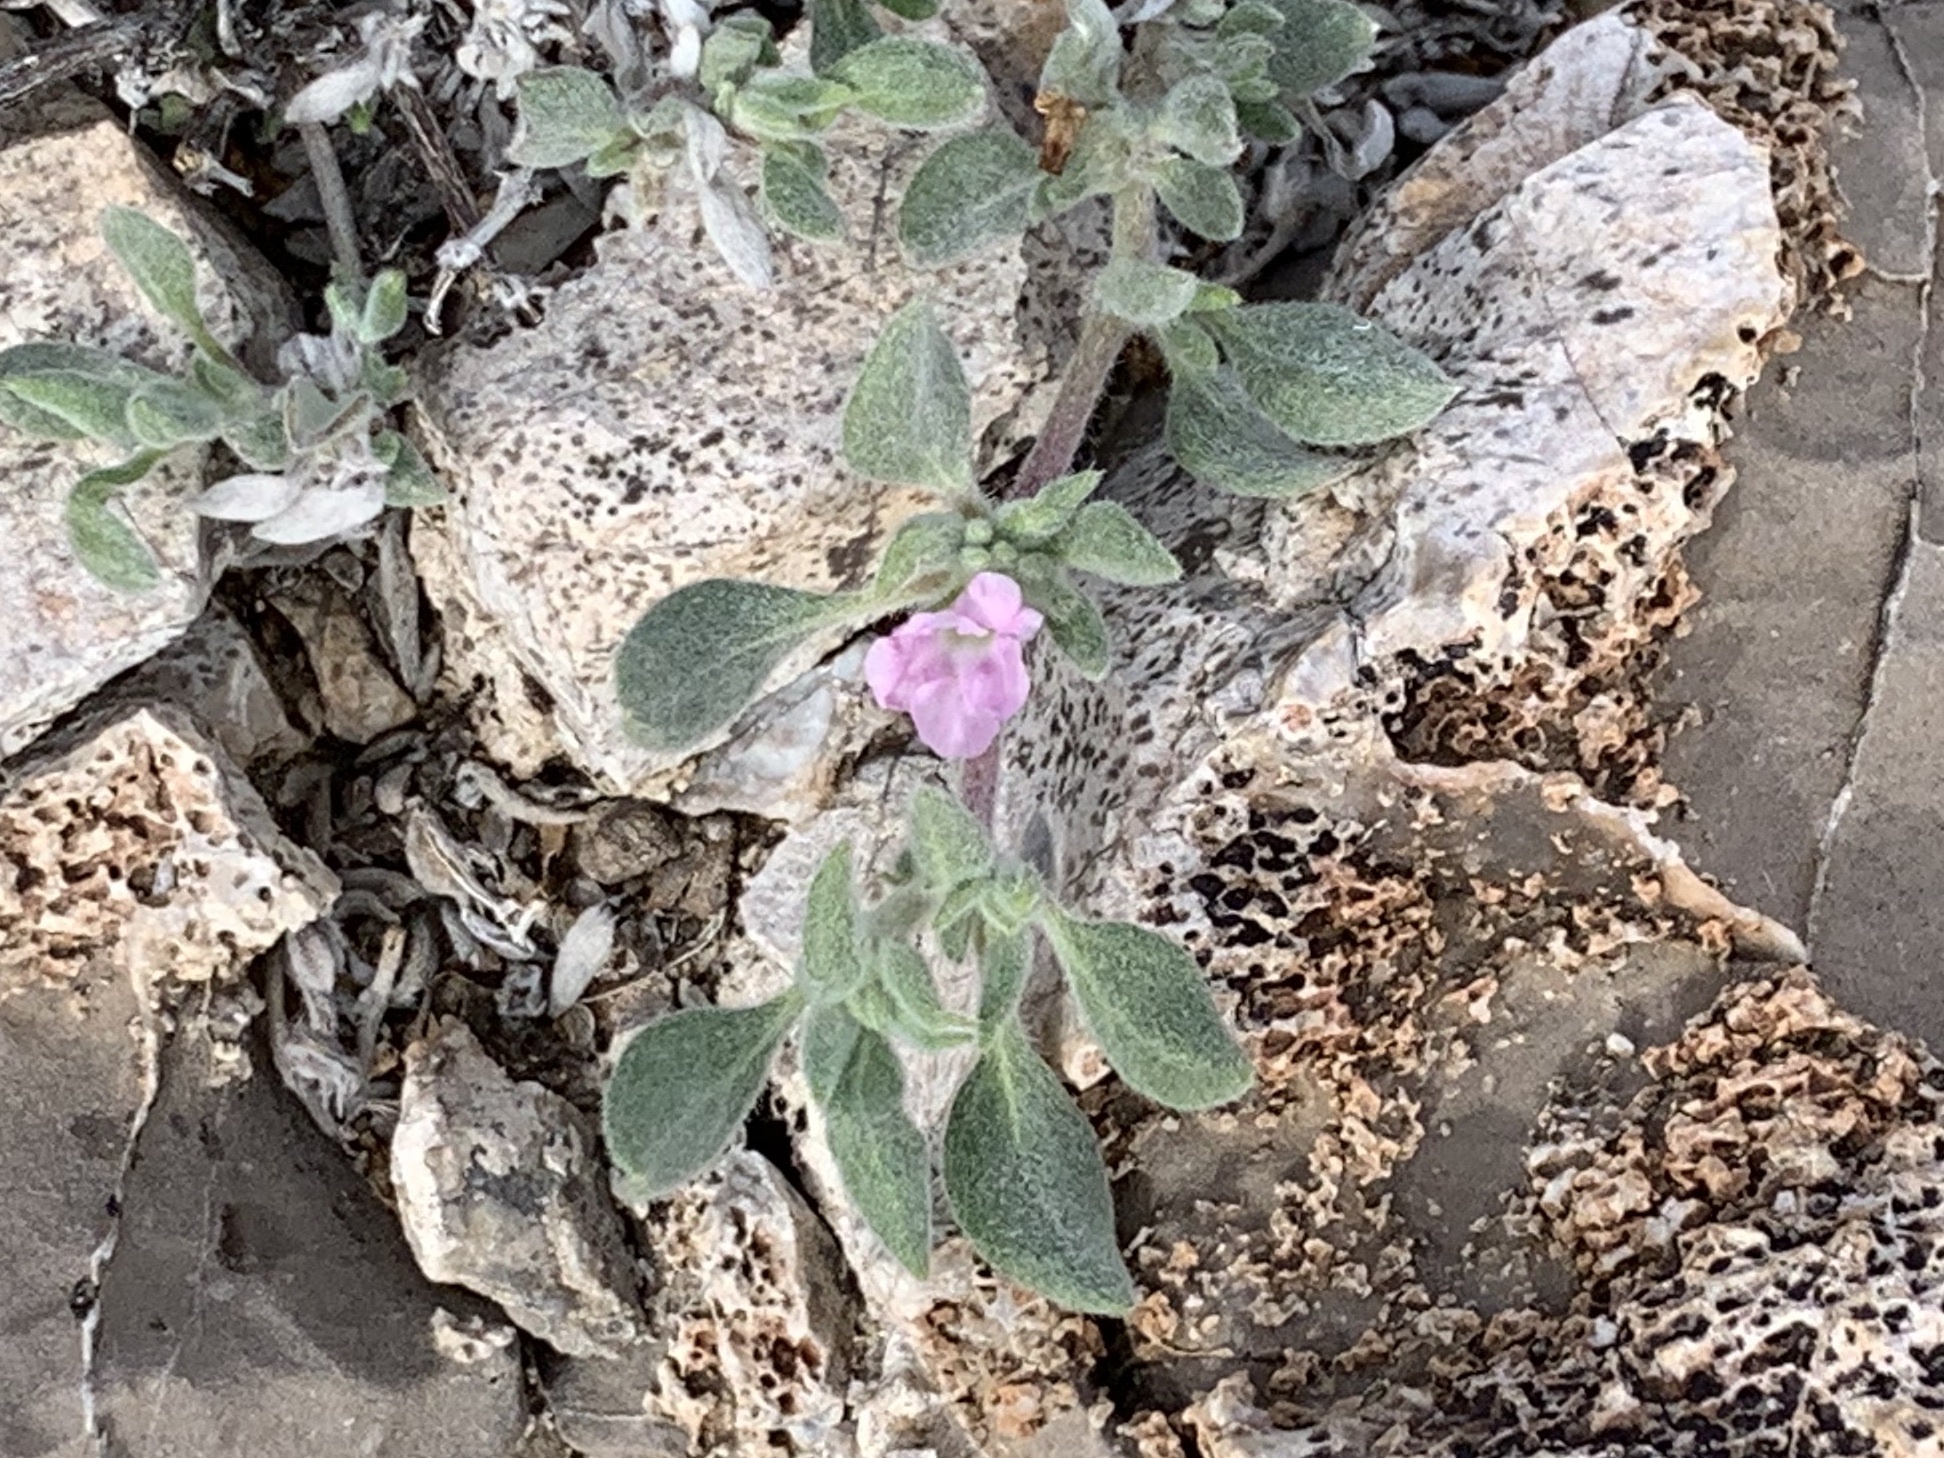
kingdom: Plantae
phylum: Tracheophyta
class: Magnoliopsida
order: Boraginales
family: Ehretiaceae
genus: Tiquilia
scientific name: Tiquilia canescens
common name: Hairy tiquilia
